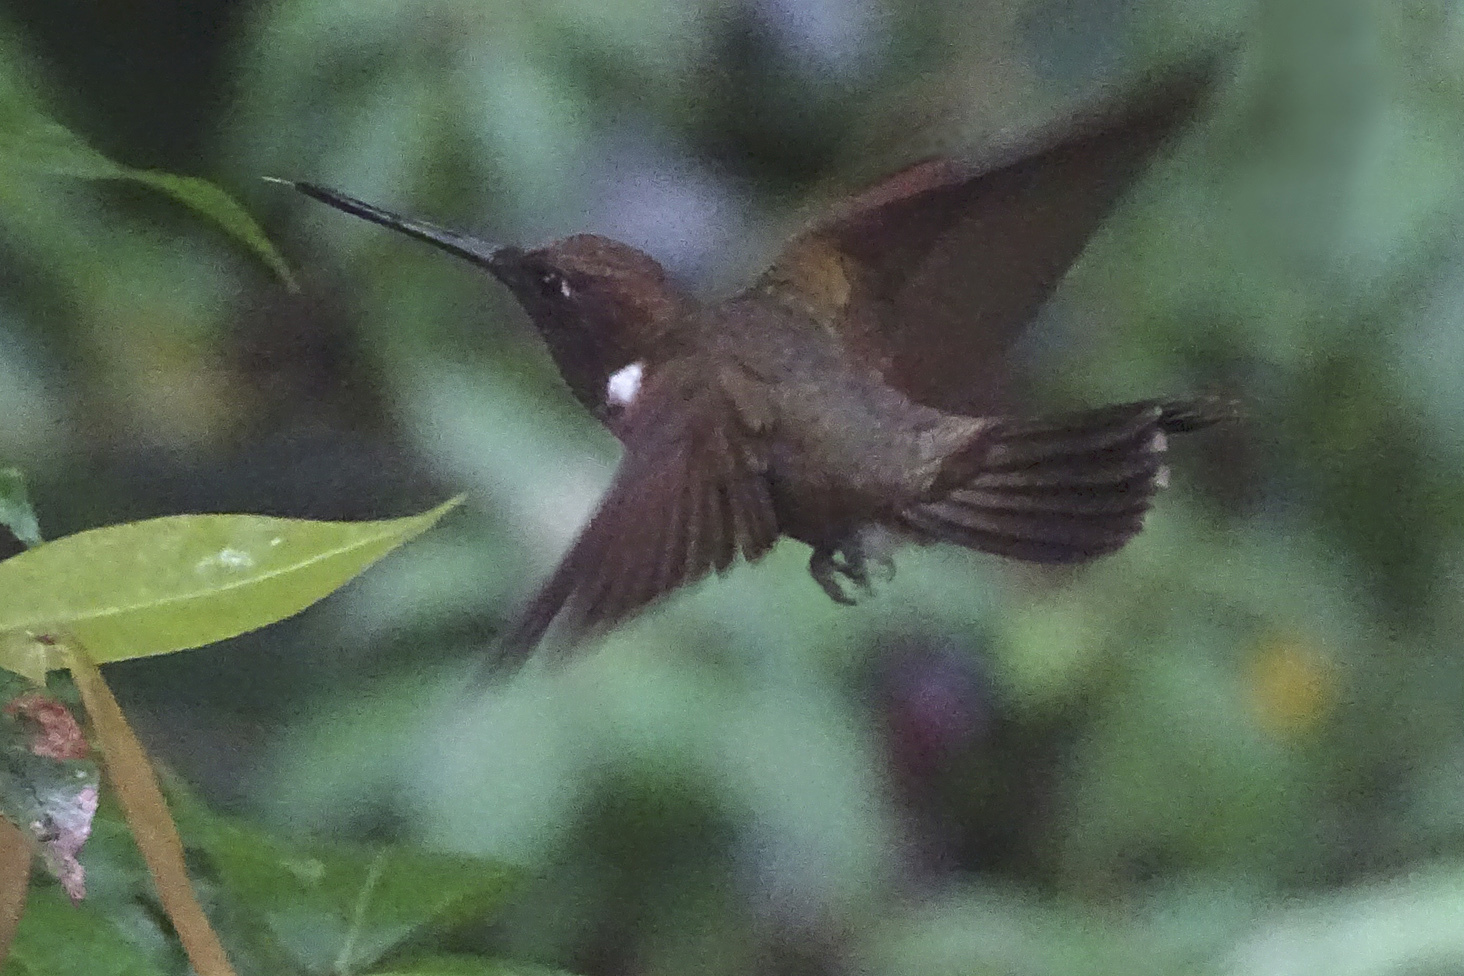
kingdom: Animalia
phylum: Chordata
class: Aves
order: Apodiformes
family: Trochilidae
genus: Coeligena
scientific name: Coeligena wilsoni
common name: Brown inca
